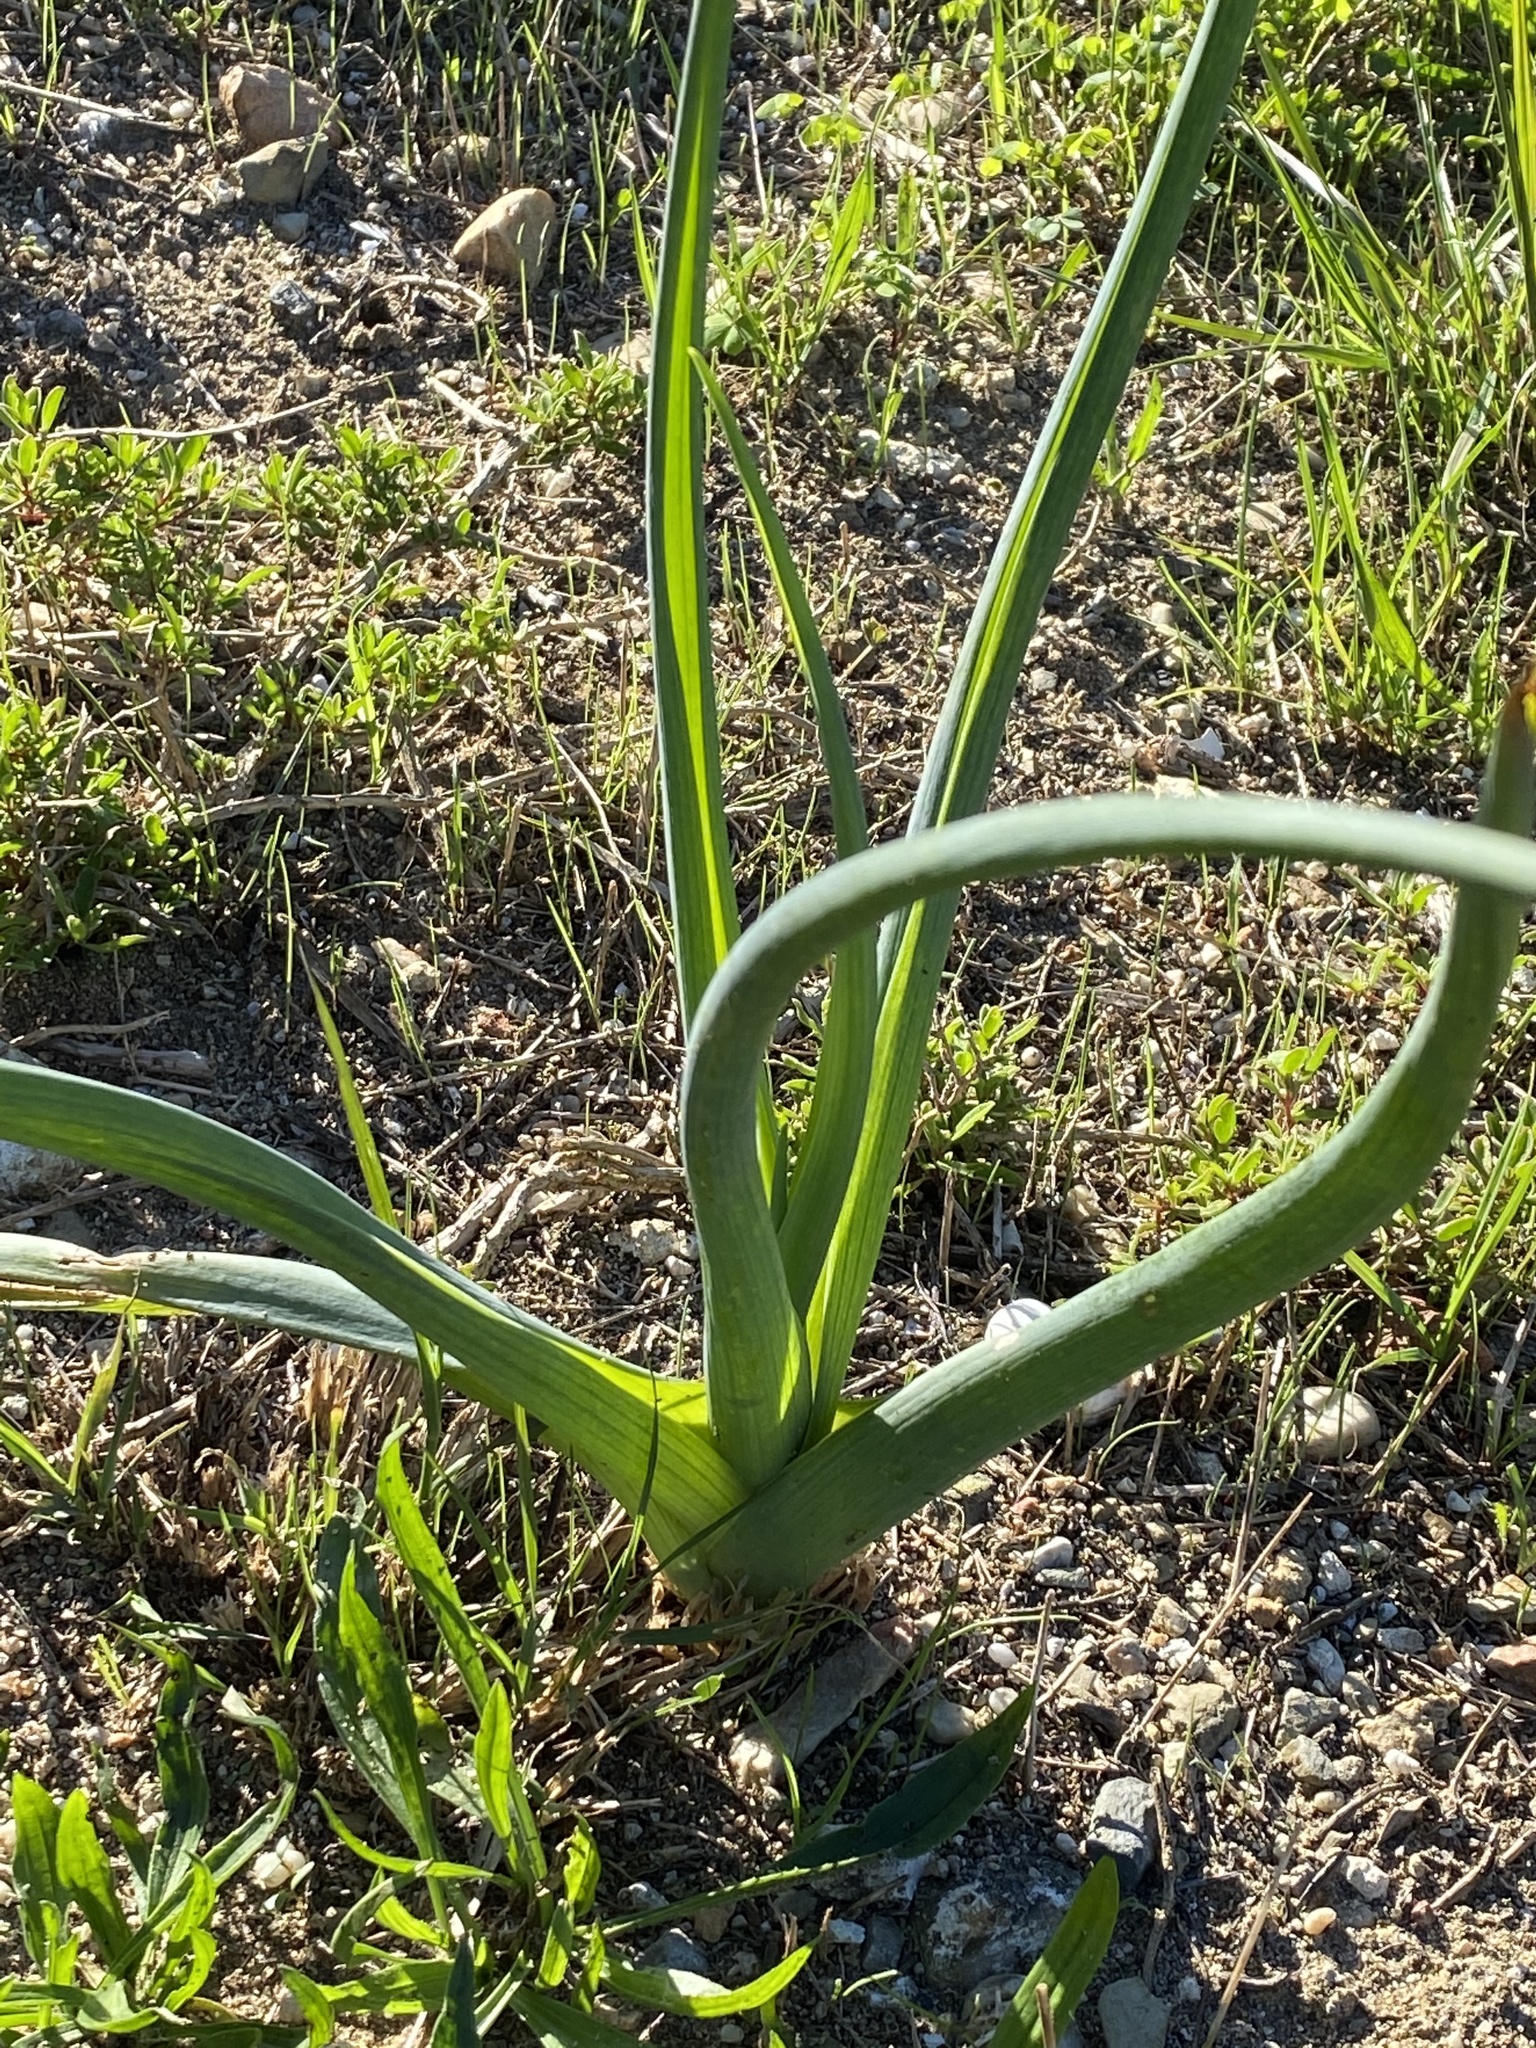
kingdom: Plantae
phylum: Tracheophyta
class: Liliopsida
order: Asparagales
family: Asparagaceae
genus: Albuca
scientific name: Albuca canadensis
